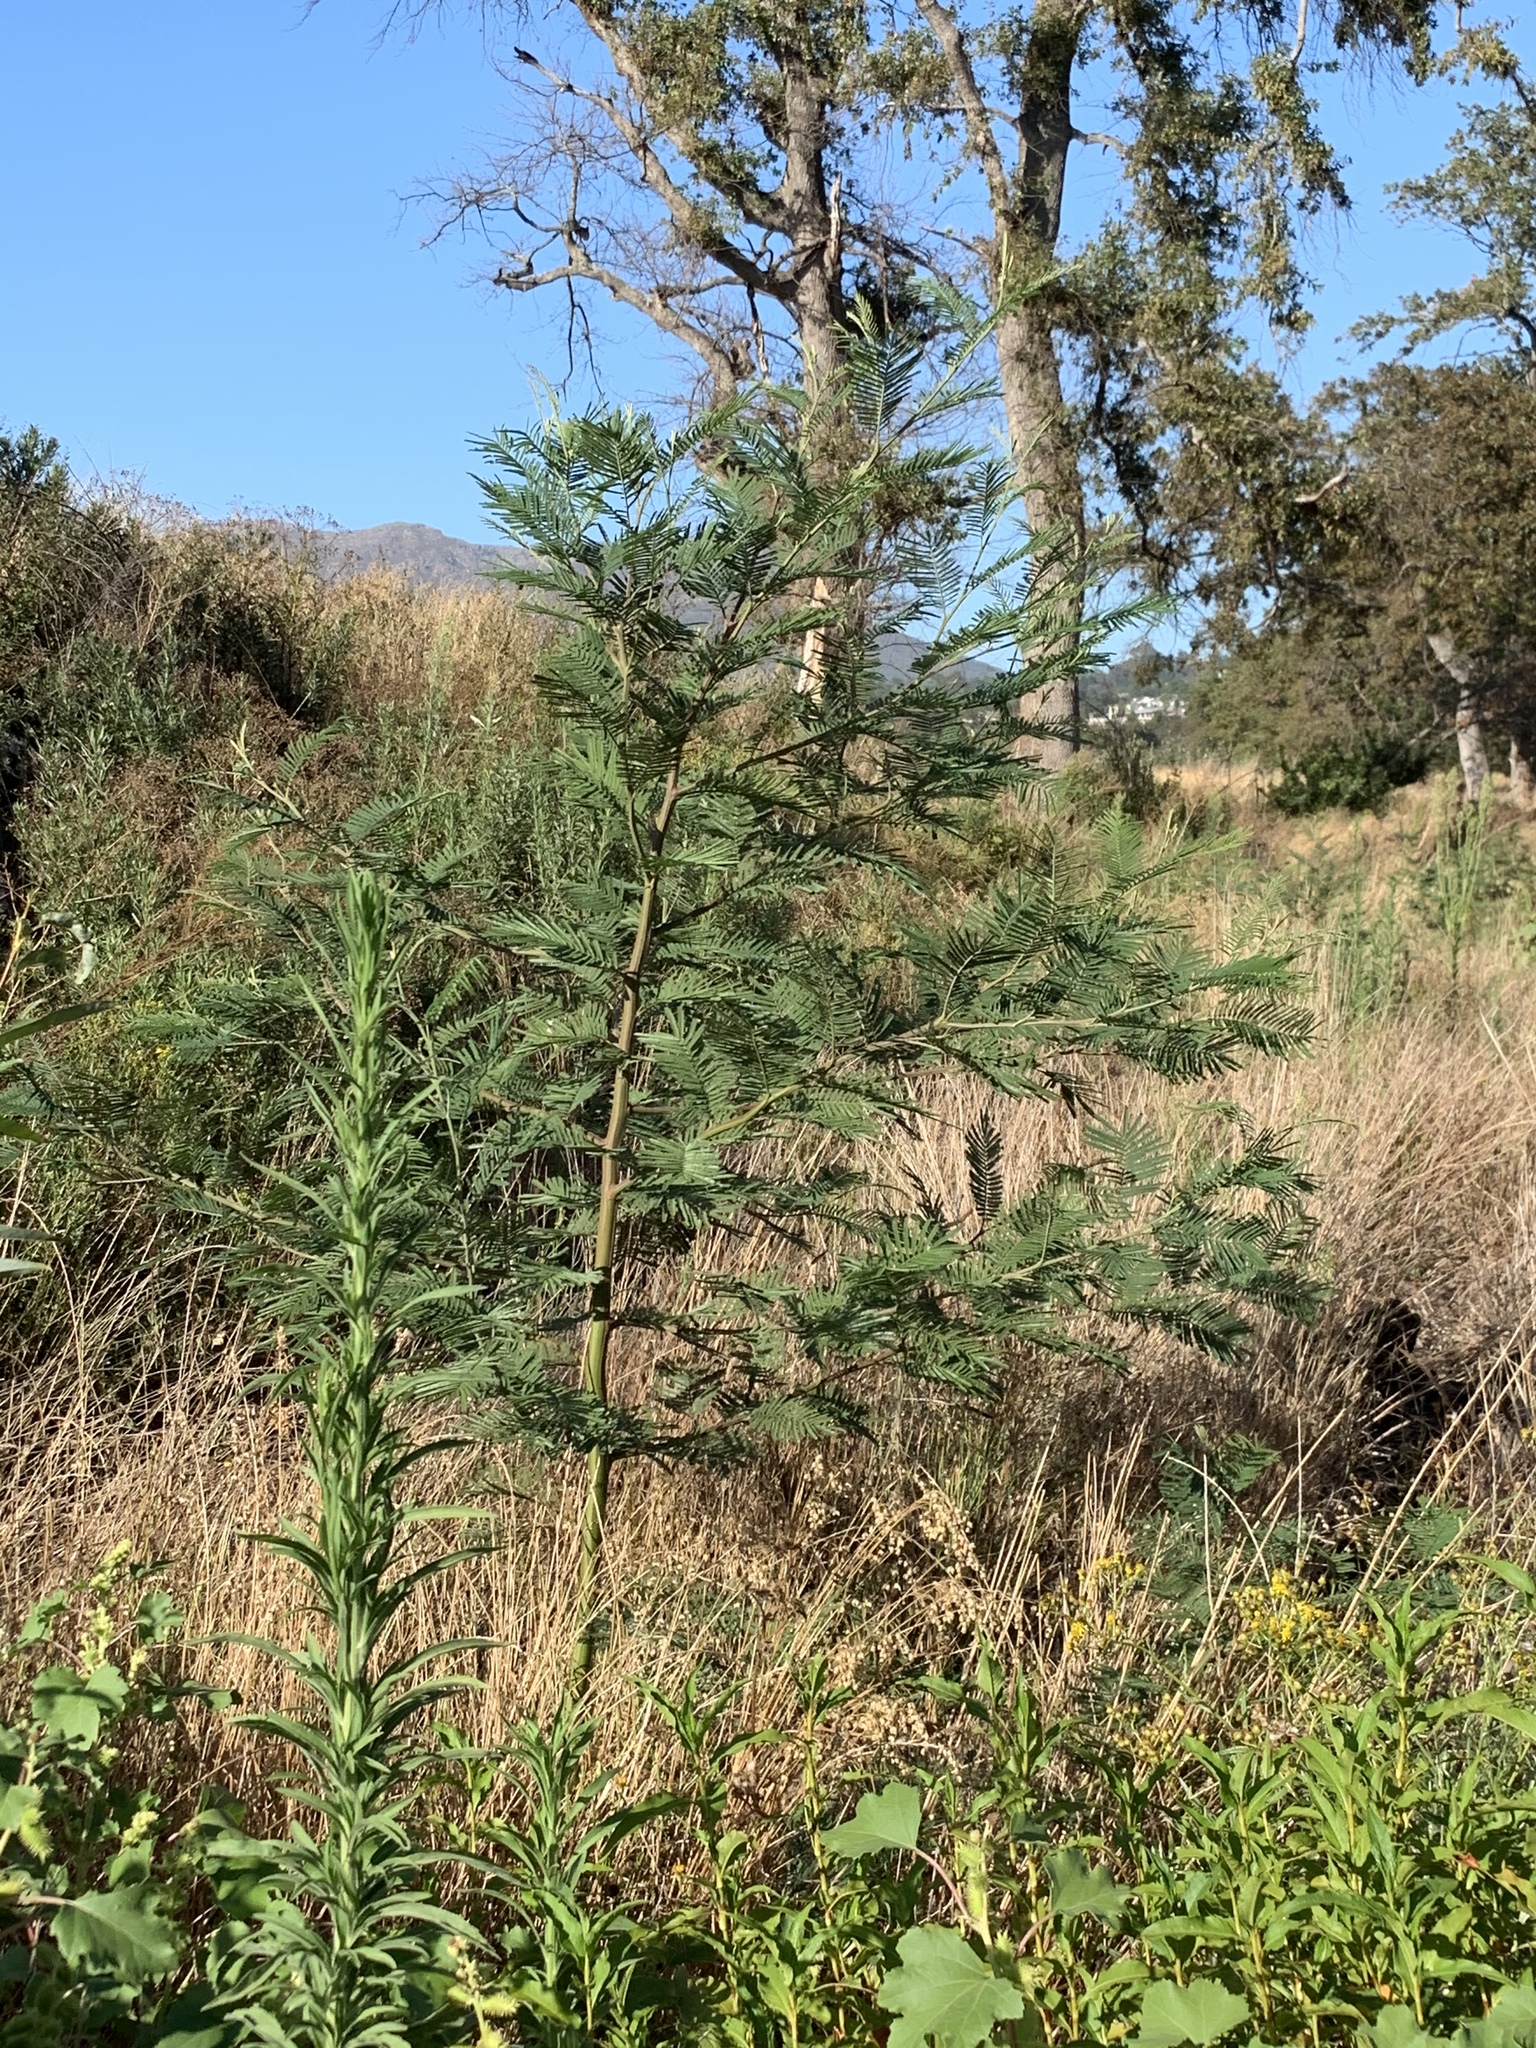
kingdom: Plantae
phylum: Tracheophyta
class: Magnoliopsida
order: Fabales
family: Fabaceae
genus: Acacia
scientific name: Acacia mearnsii
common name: Black wattle
